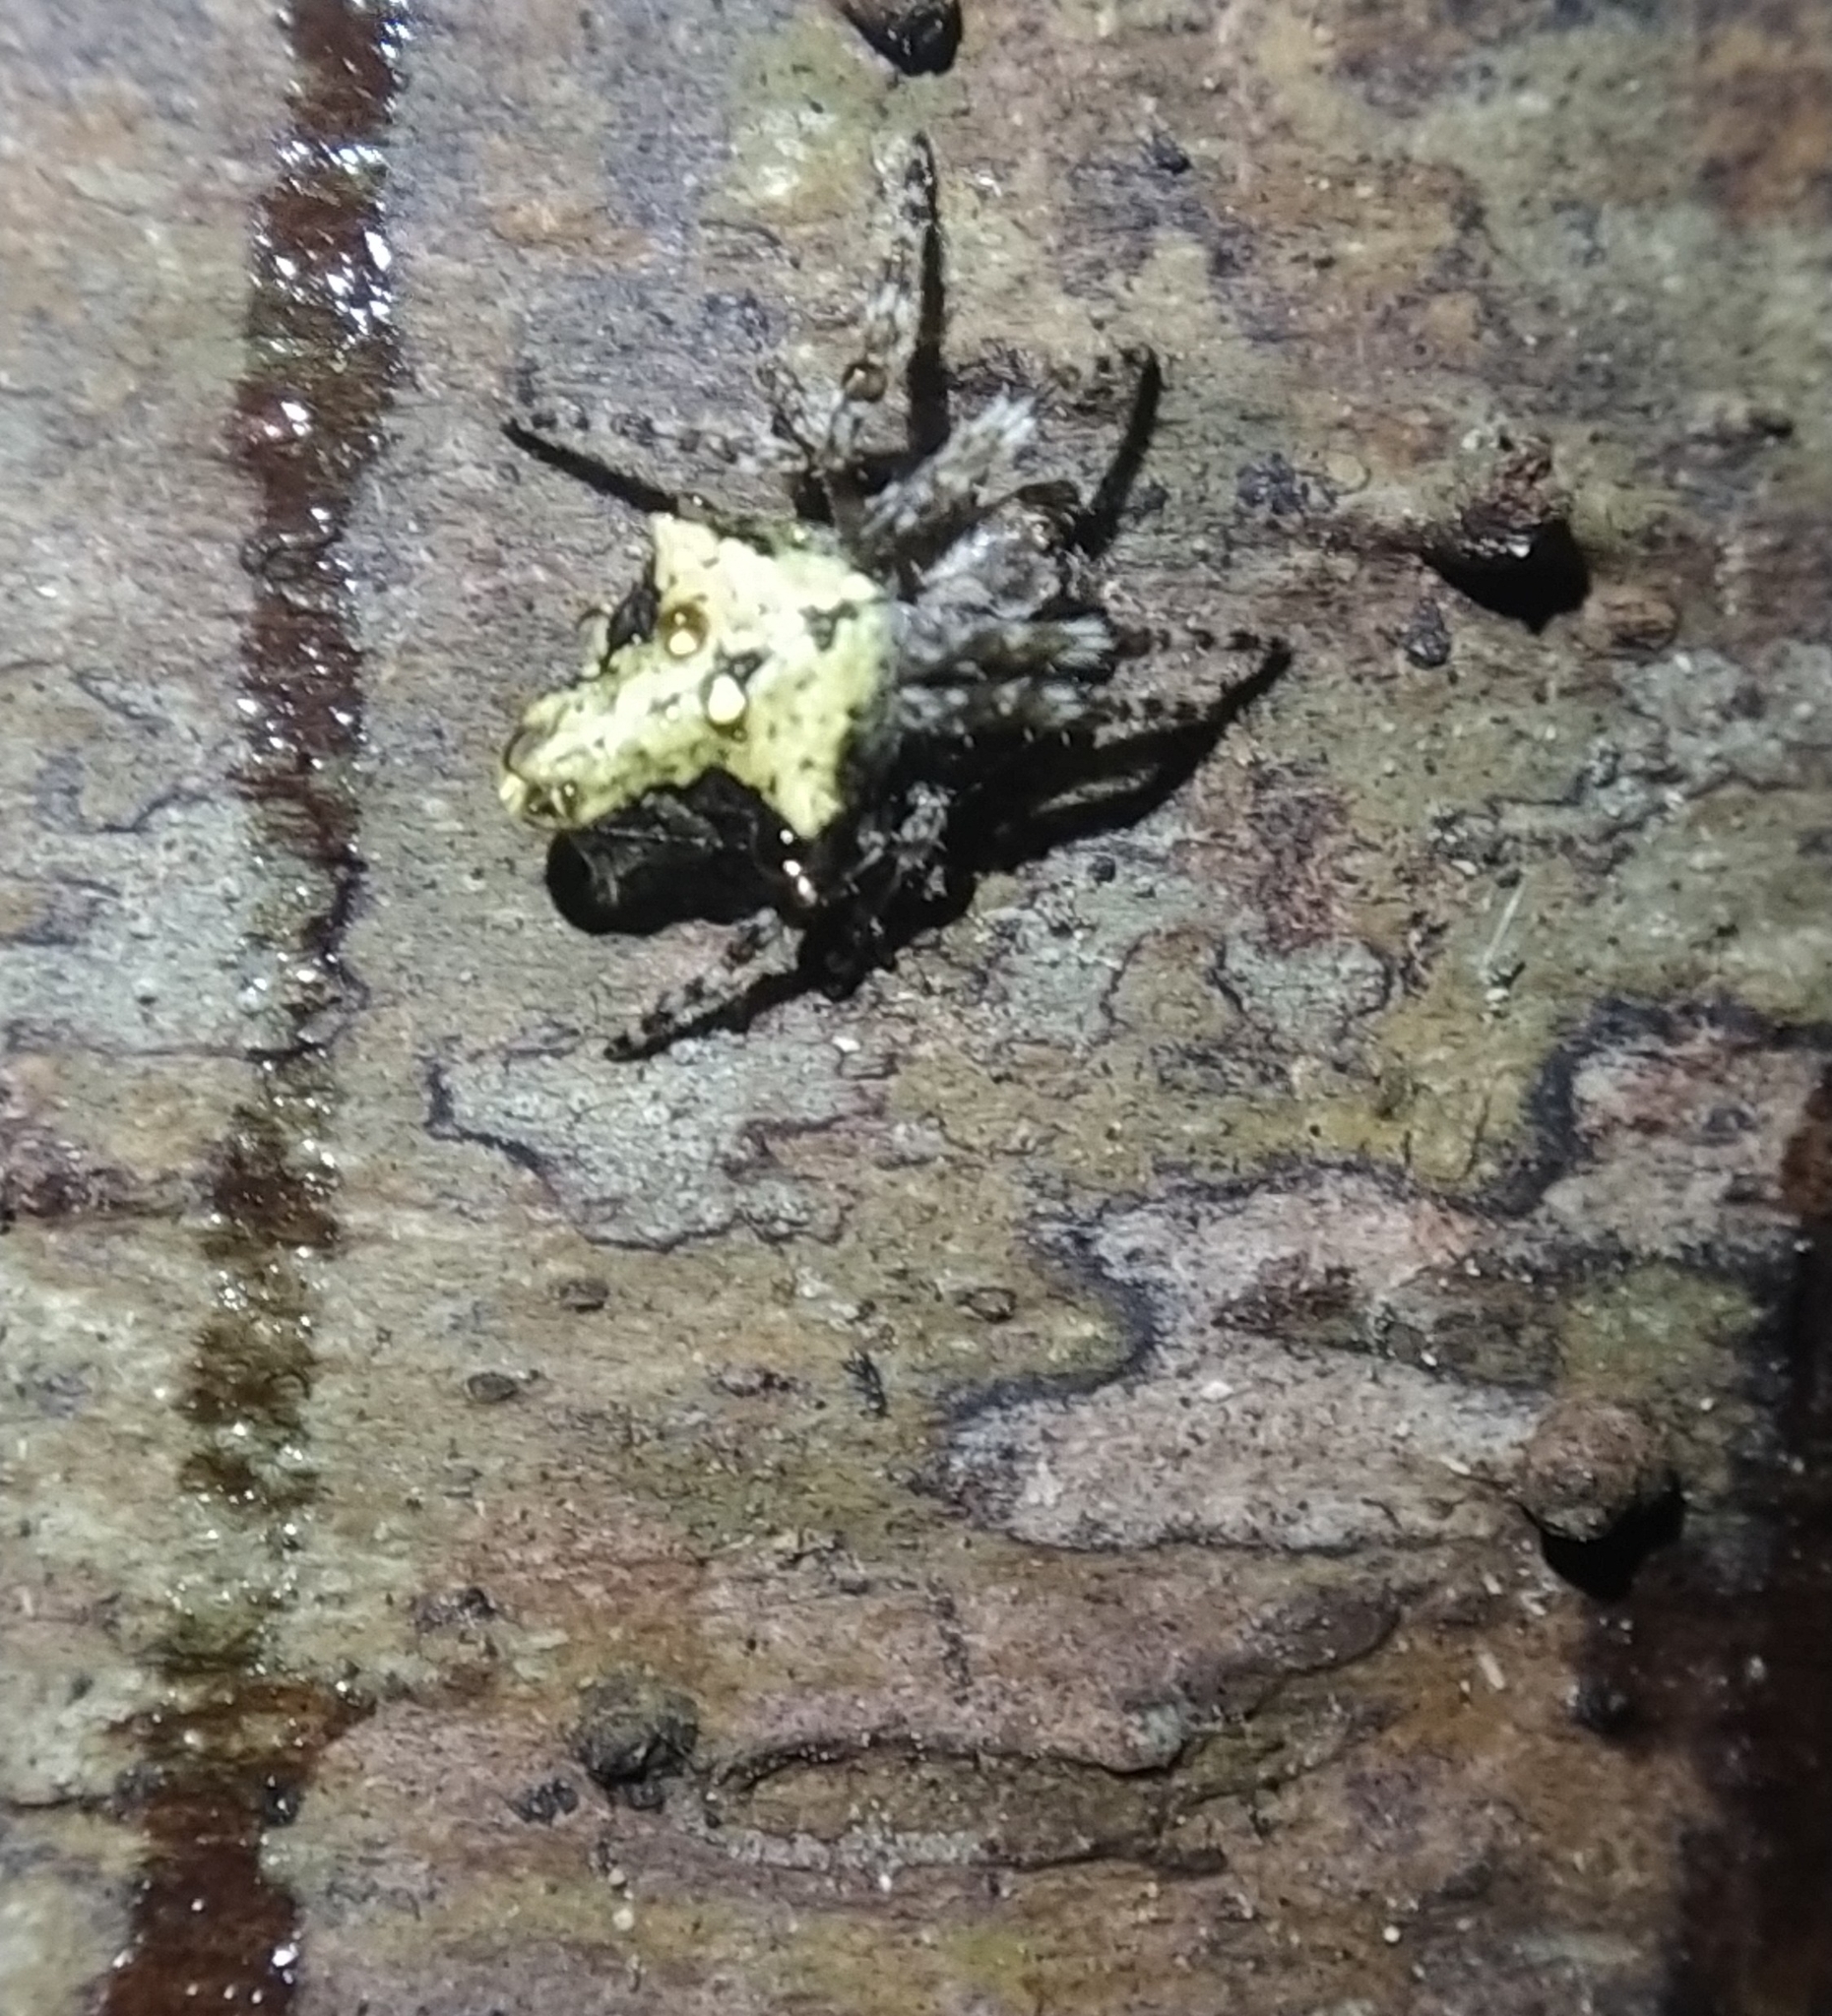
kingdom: Animalia
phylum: Arthropoda
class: Arachnida
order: Araneae
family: Araneidae
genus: Eriophora
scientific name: Eriophora pustulosa
